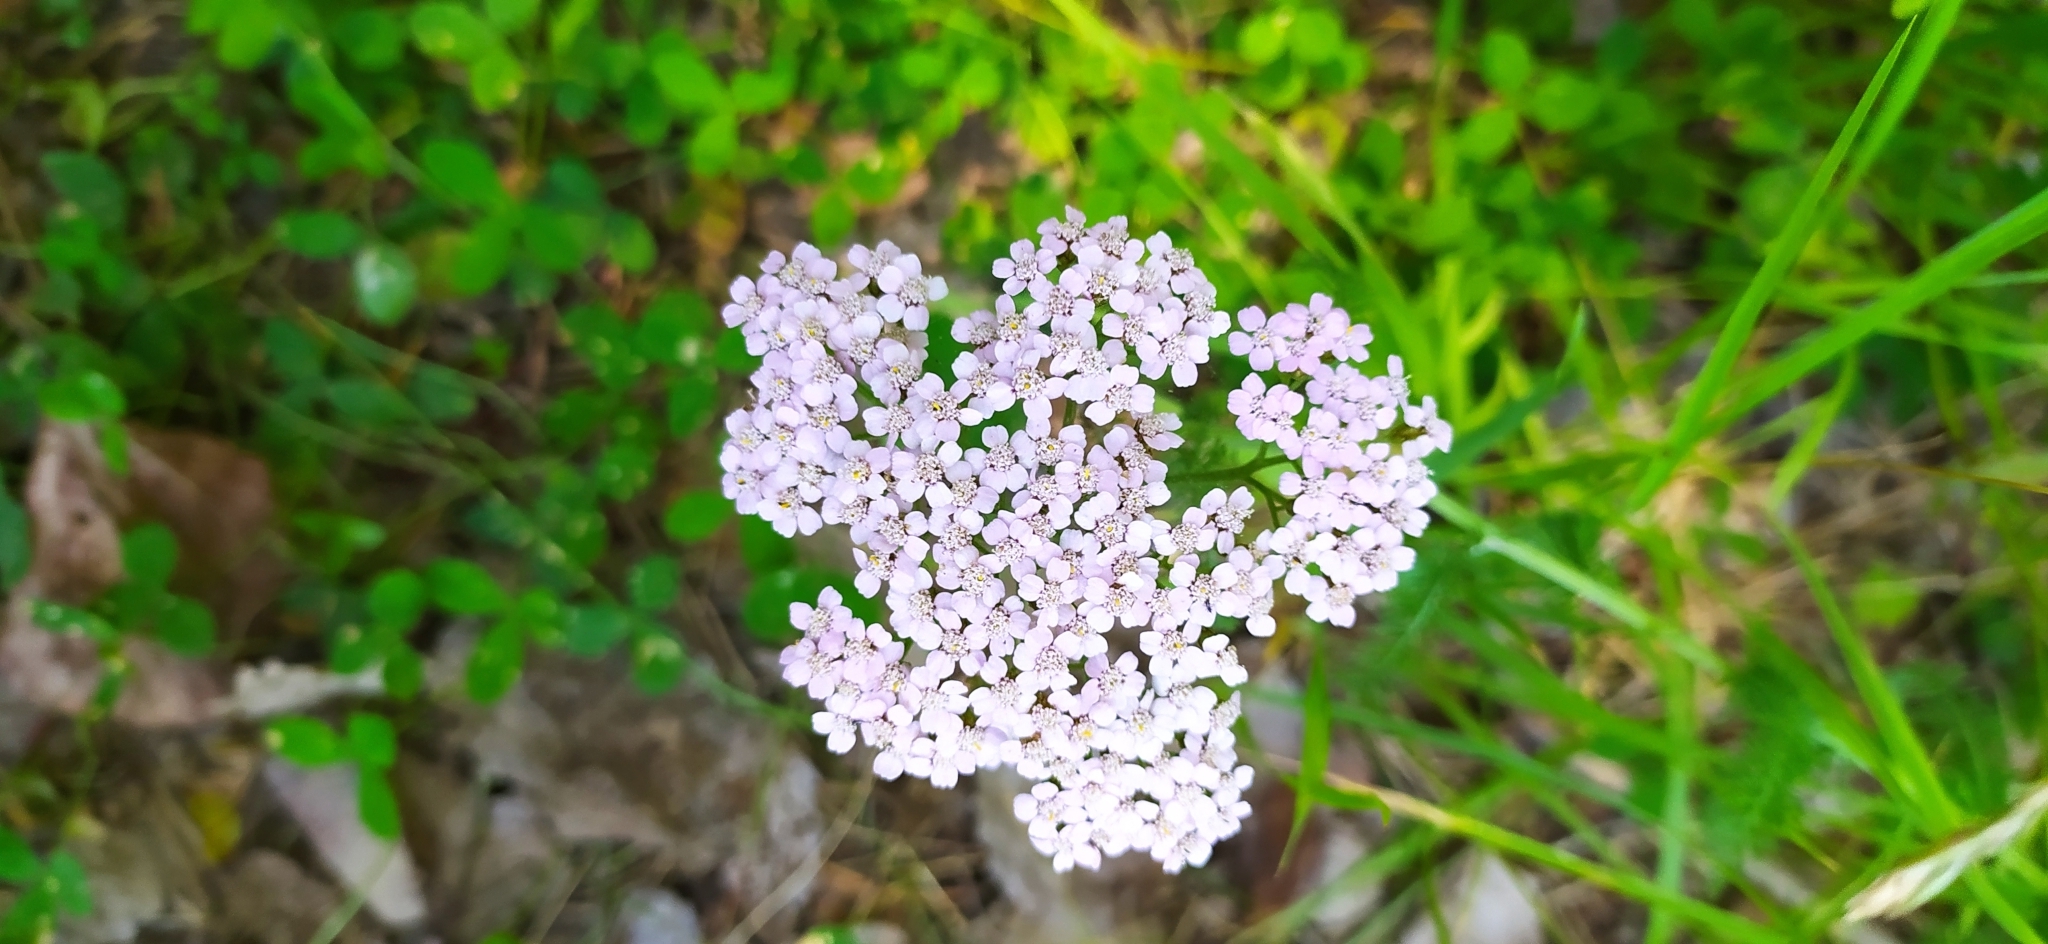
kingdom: Plantae
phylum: Tracheophyta
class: Magnoliopsida
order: Asterales
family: Asteraceae
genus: Achillea
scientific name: Achillea asiatica
